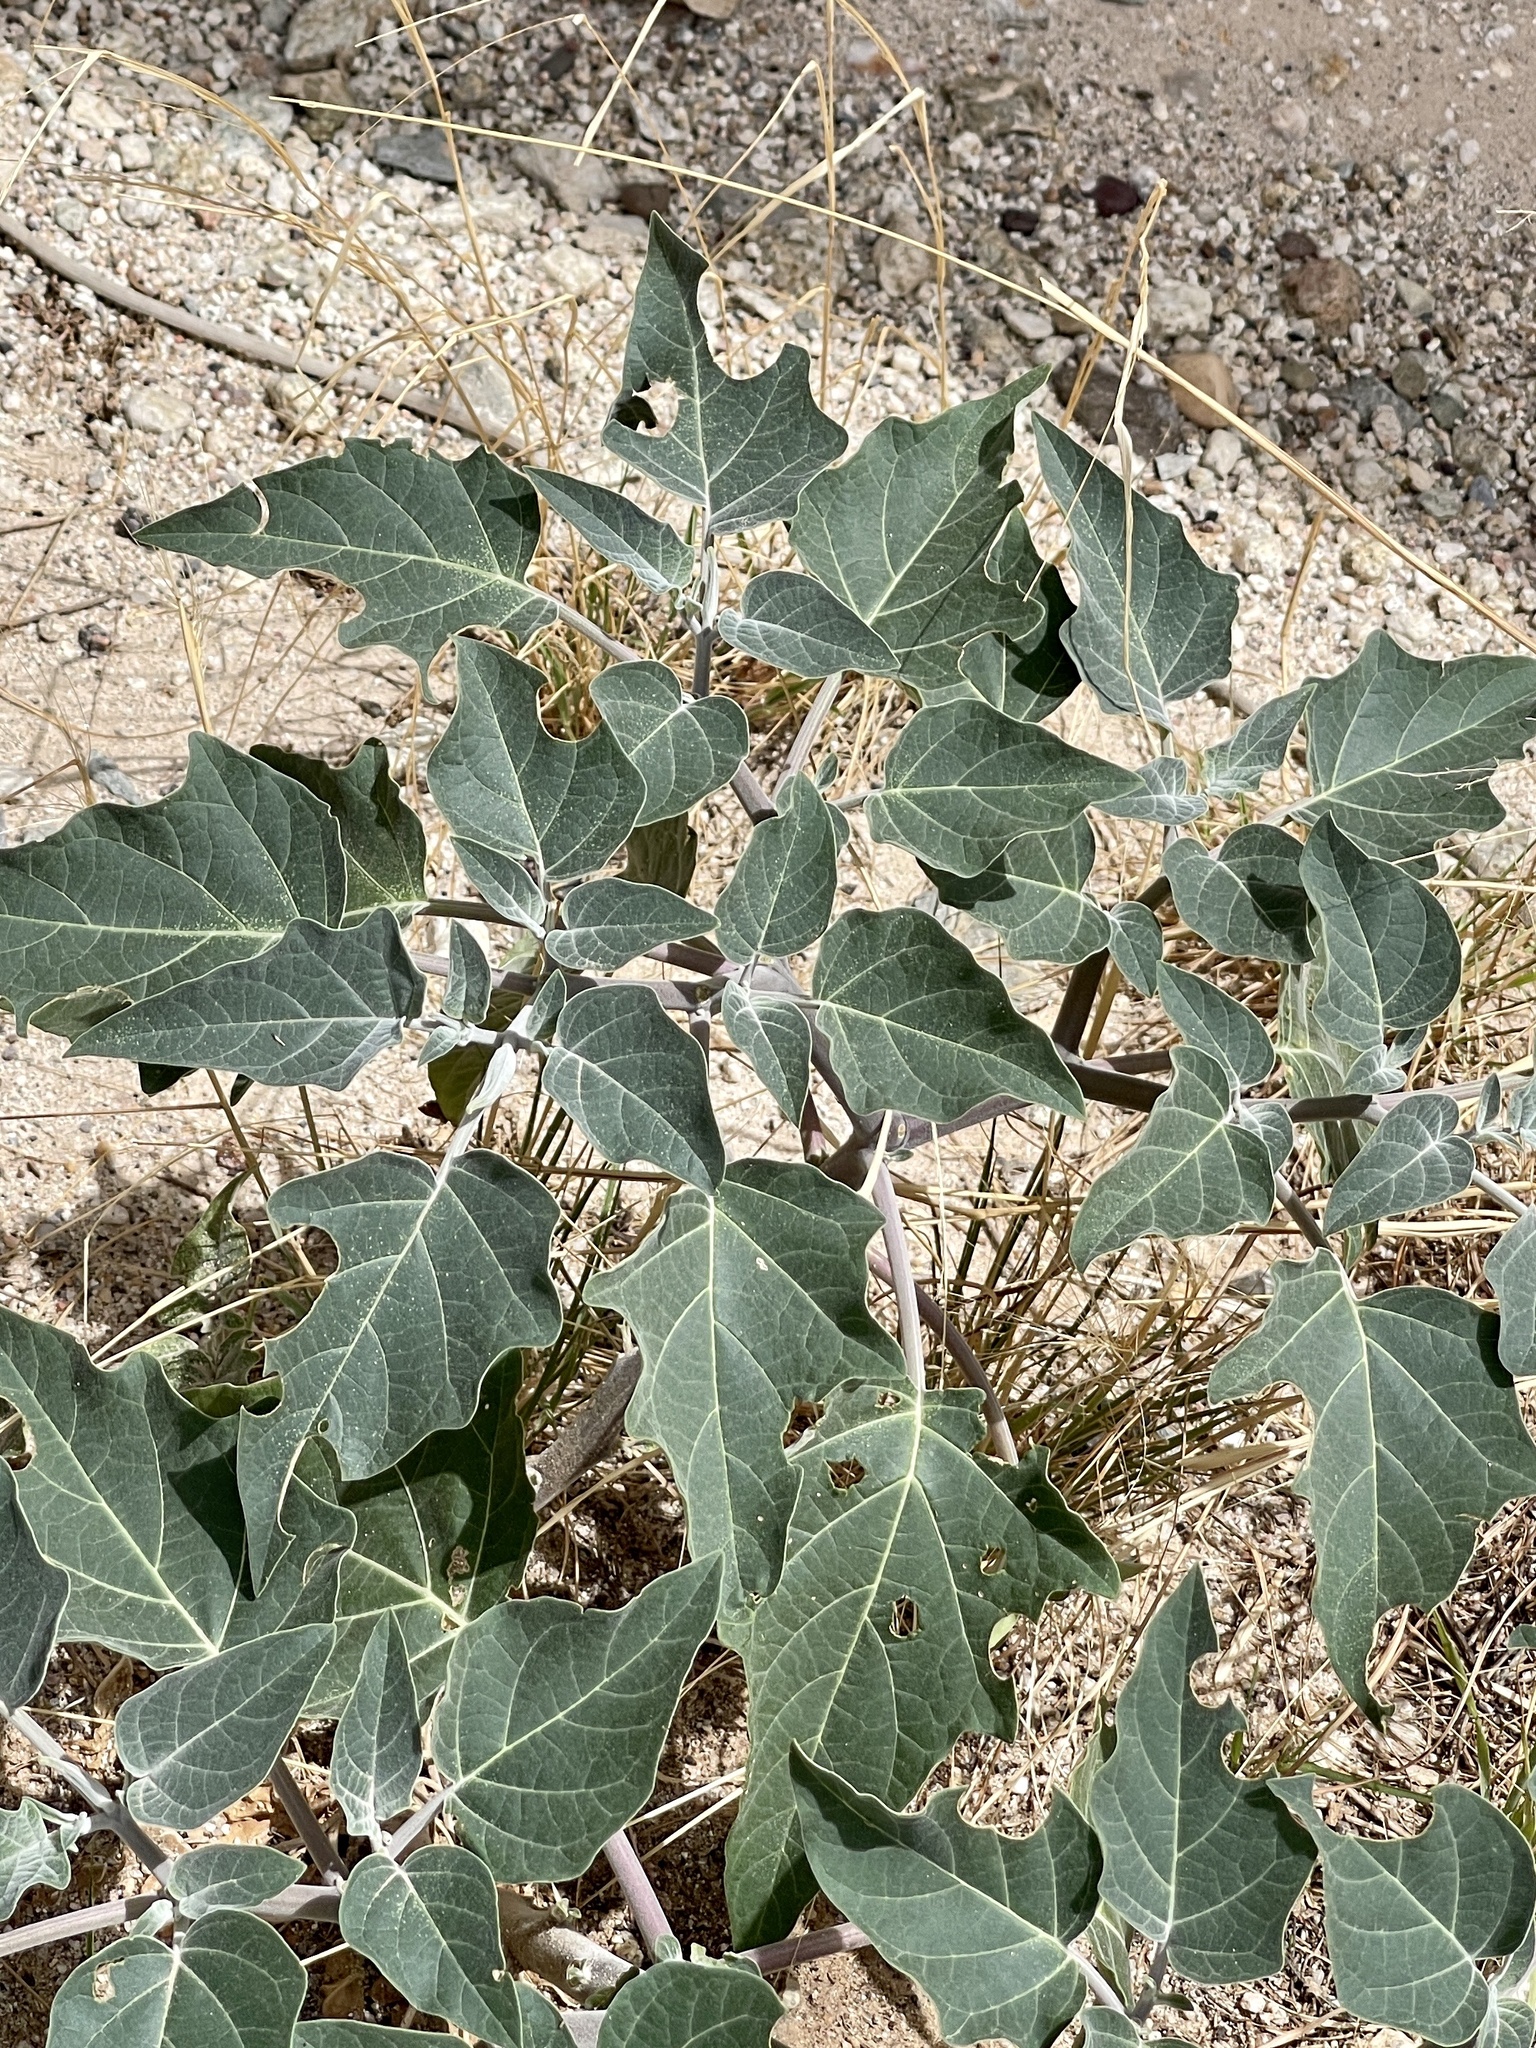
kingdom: Plantae
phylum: Tracheophyta
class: Magnoliopsida
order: Solanales
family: Solanaceae
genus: Datura
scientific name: Datura wrightii
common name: Sacred thorn-apple
